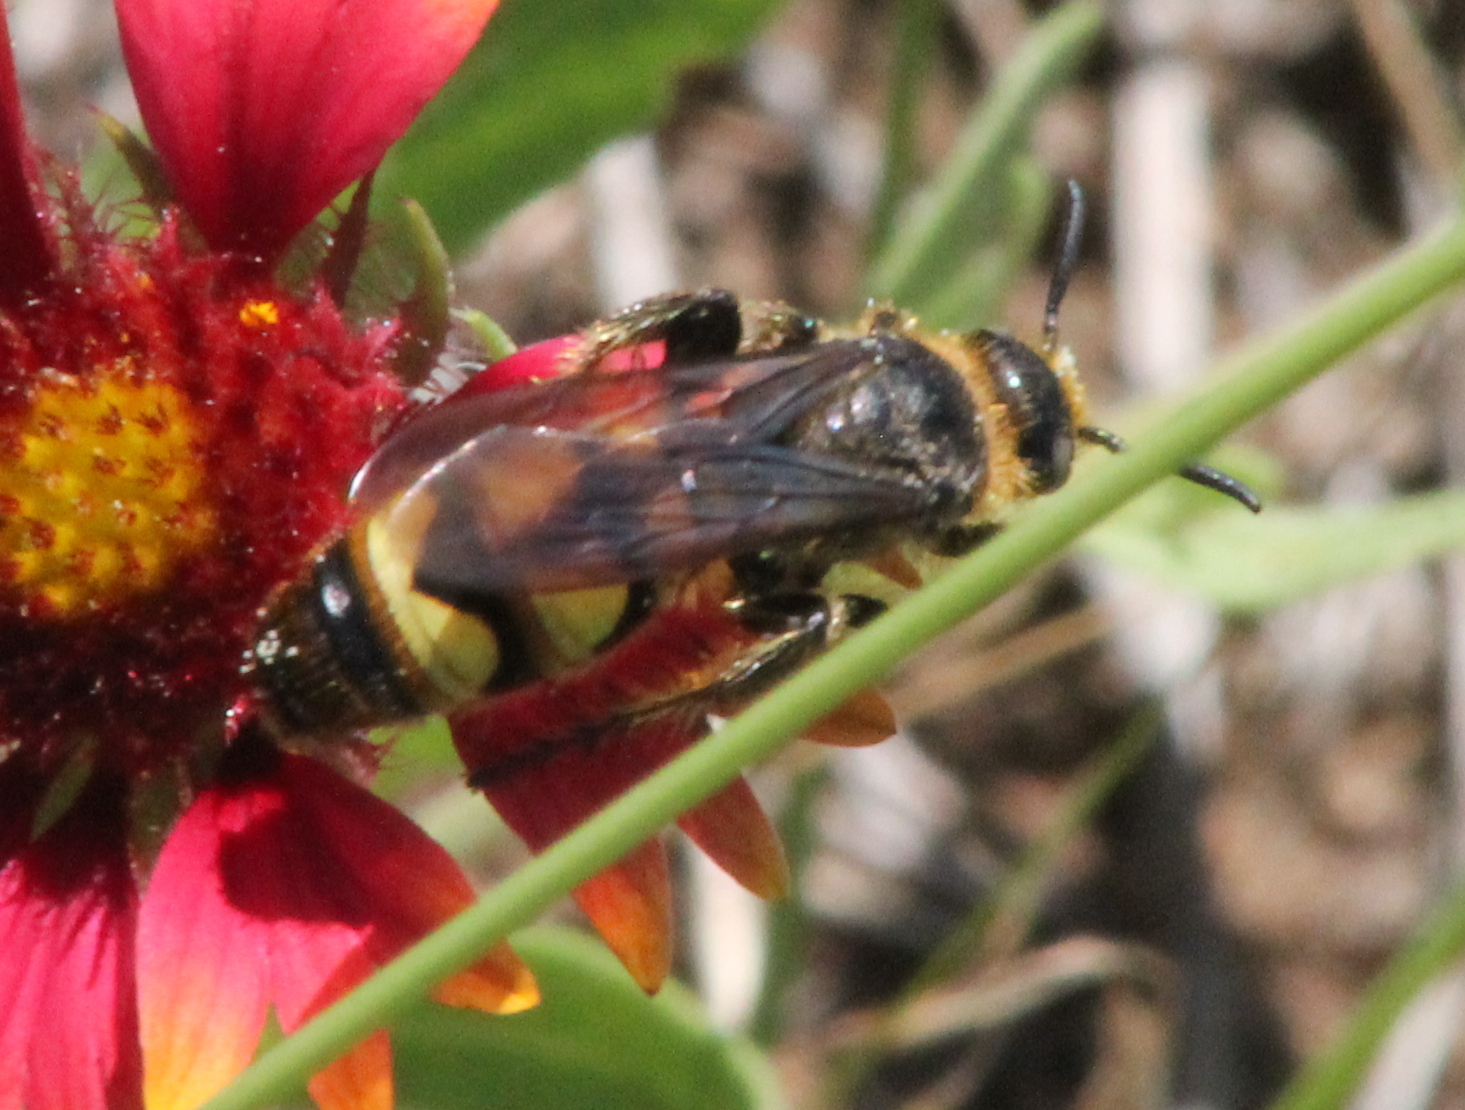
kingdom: Animalia
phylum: Arthropoda
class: Insecta
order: Hymenoptera
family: Scoliidae
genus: Dielis
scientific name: Dielis
